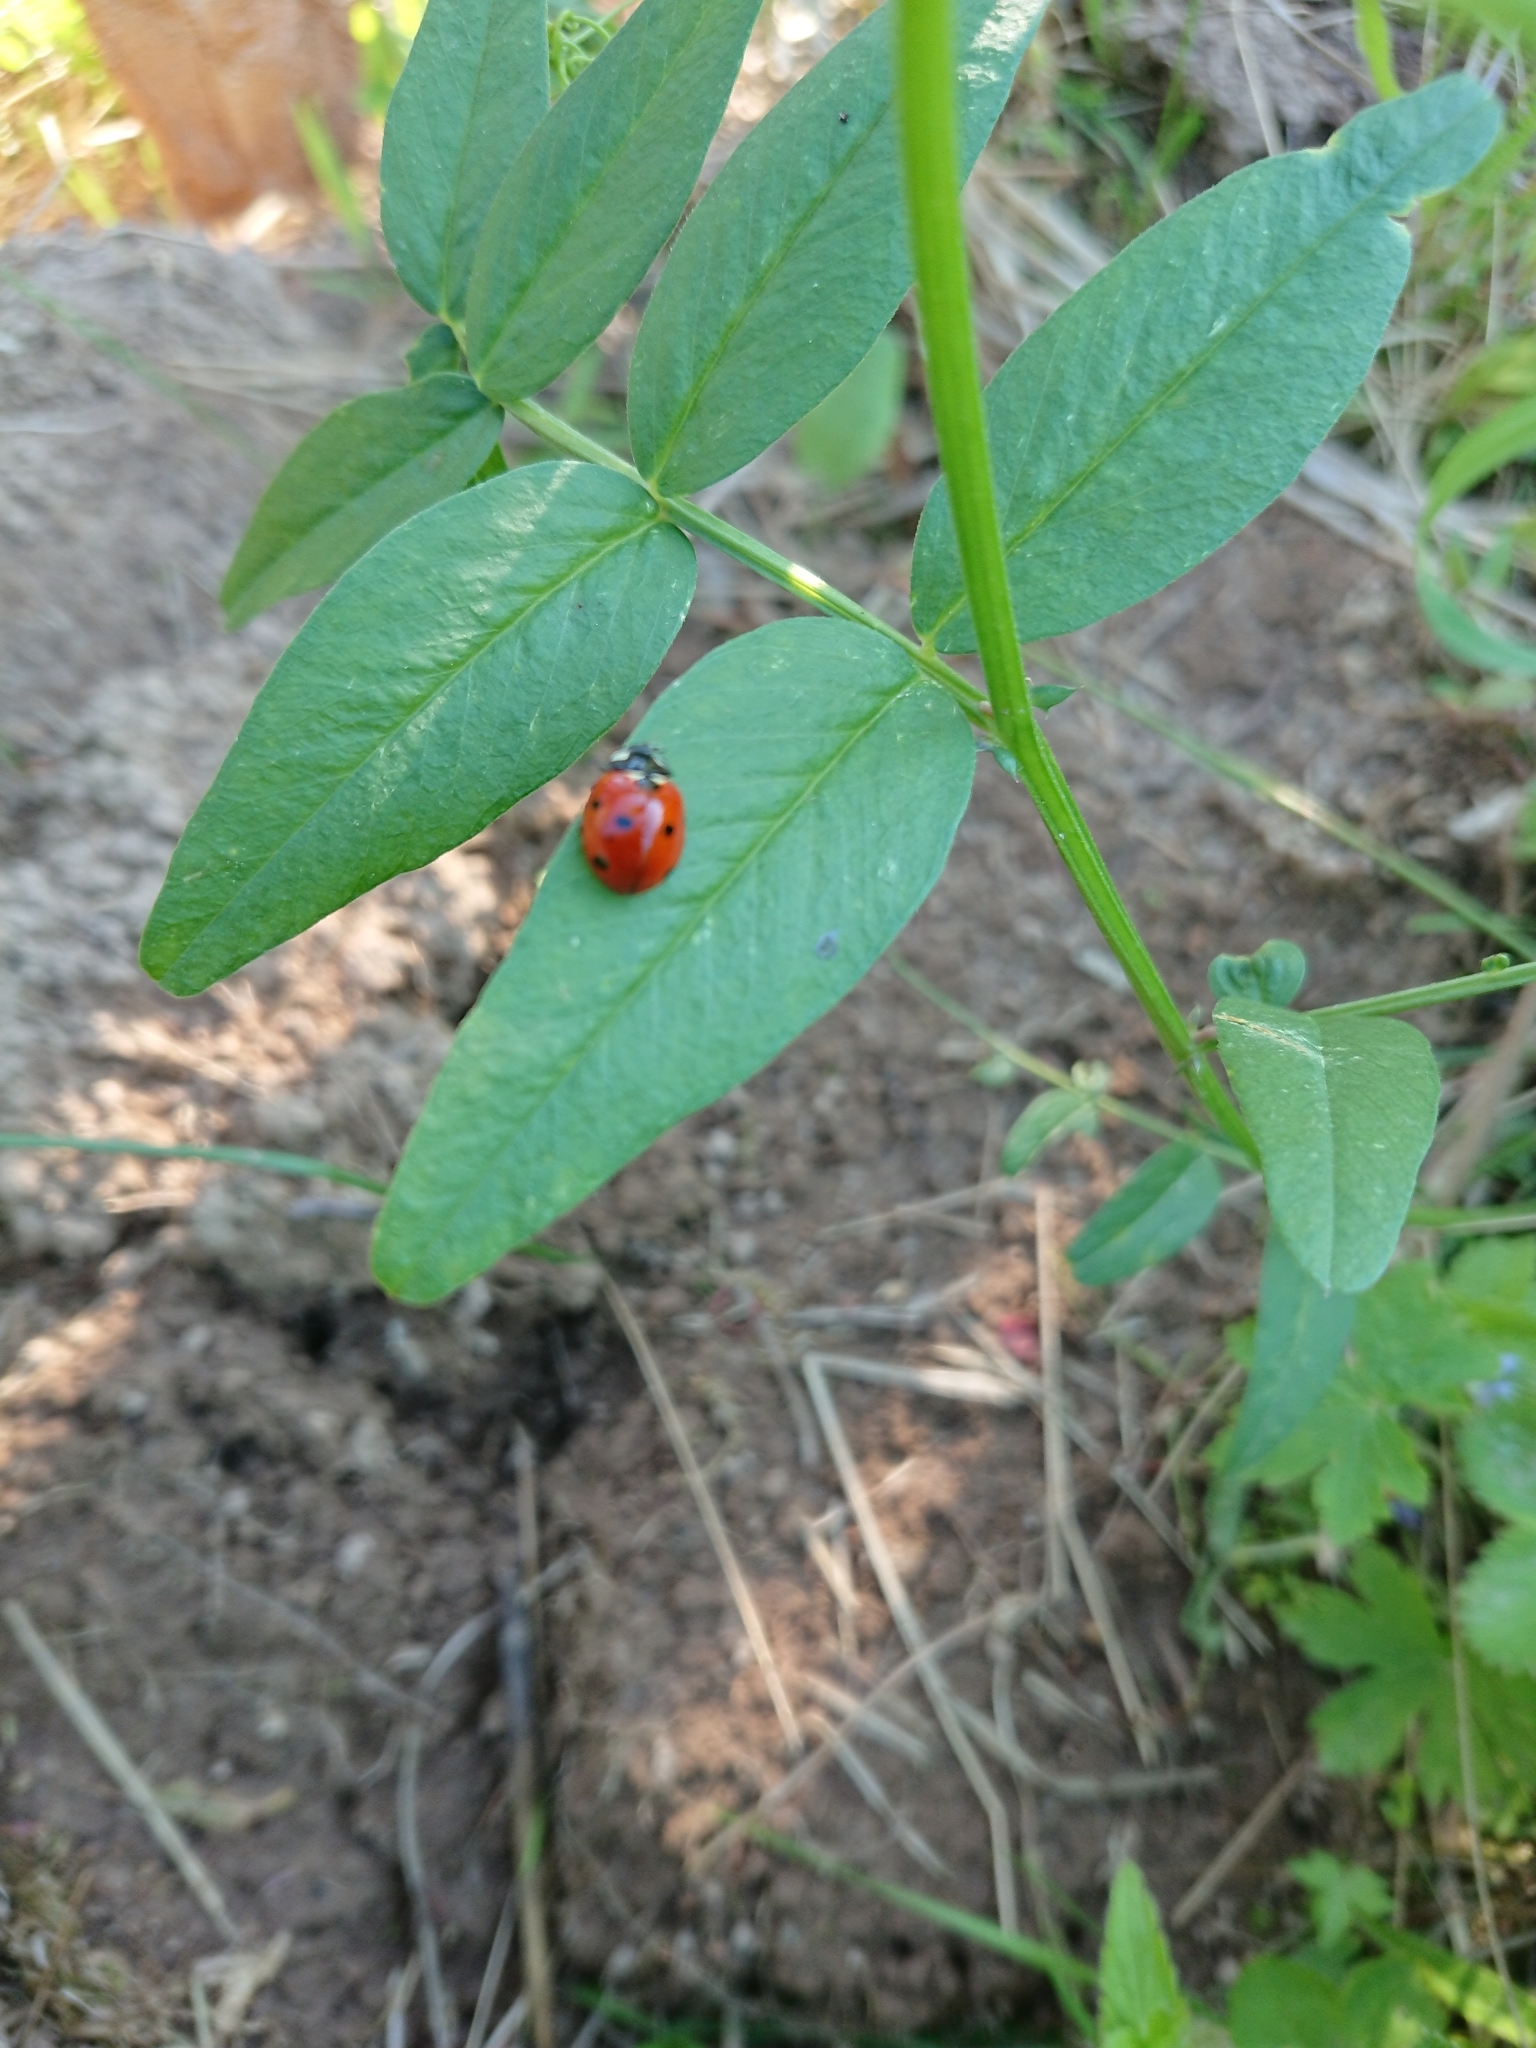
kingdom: Animalia
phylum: Arthropoda
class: Insecta
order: Coleoptera
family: Coccinellidae
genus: Coccinella
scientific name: Coccinella septempunctata
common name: Sevenspotted lady beetle
